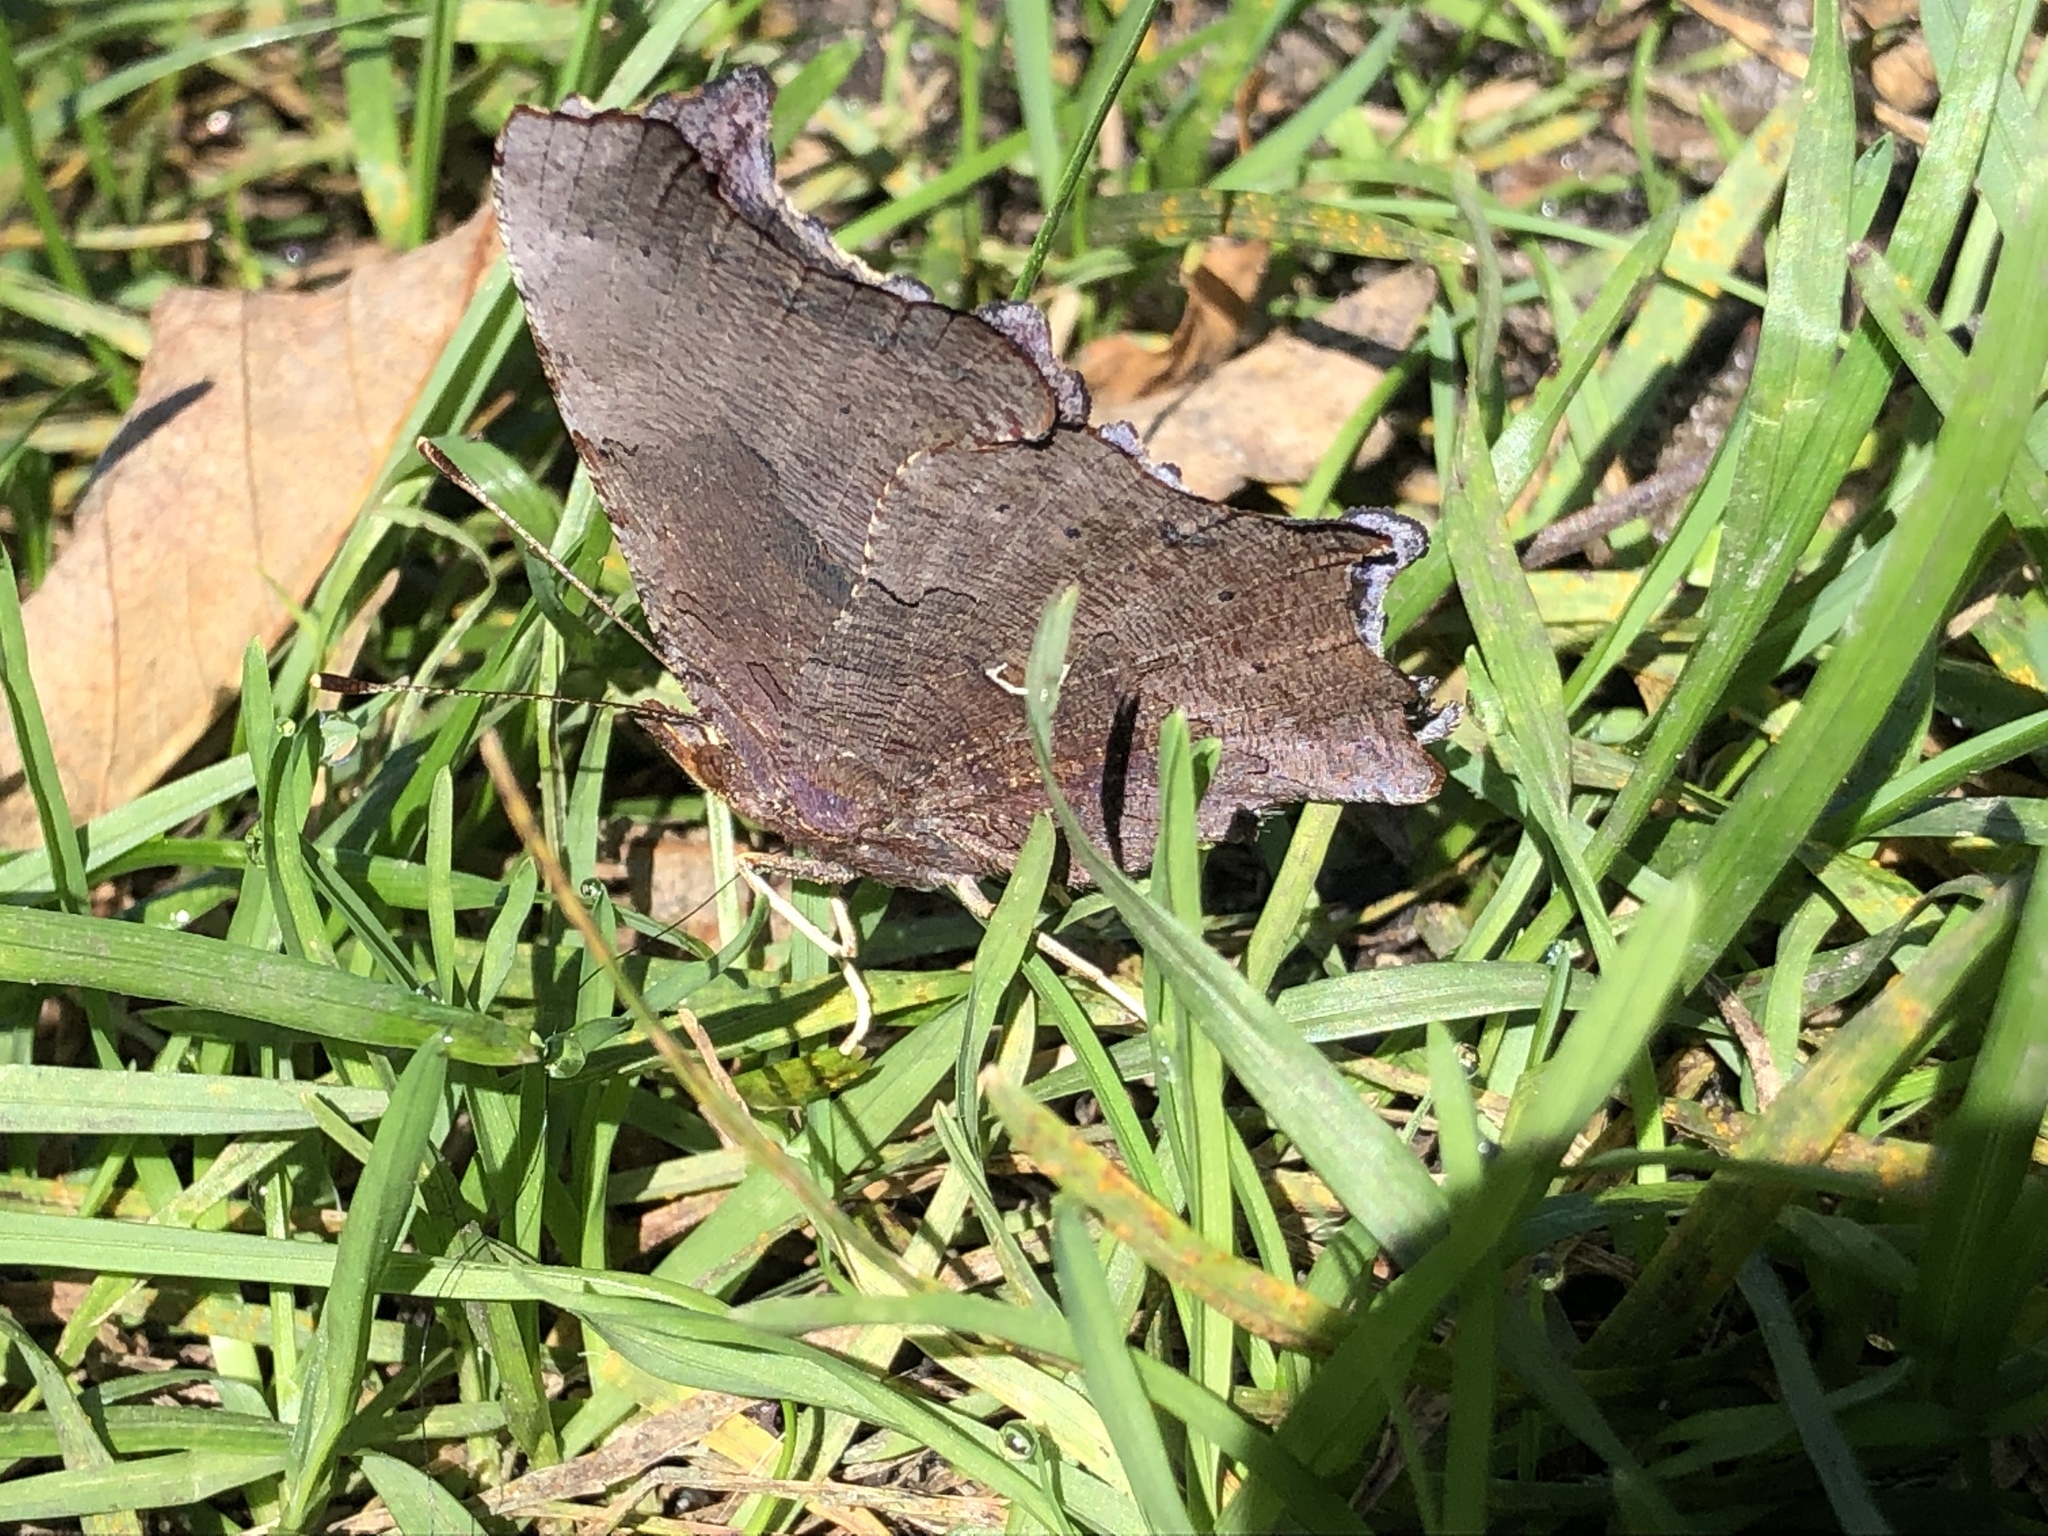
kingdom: Animalia
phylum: Arthropoda
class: Insecta
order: Lepidoptera
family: Nymphalidae
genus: Polygonia
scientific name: Polygonia comma
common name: Eastern comma
